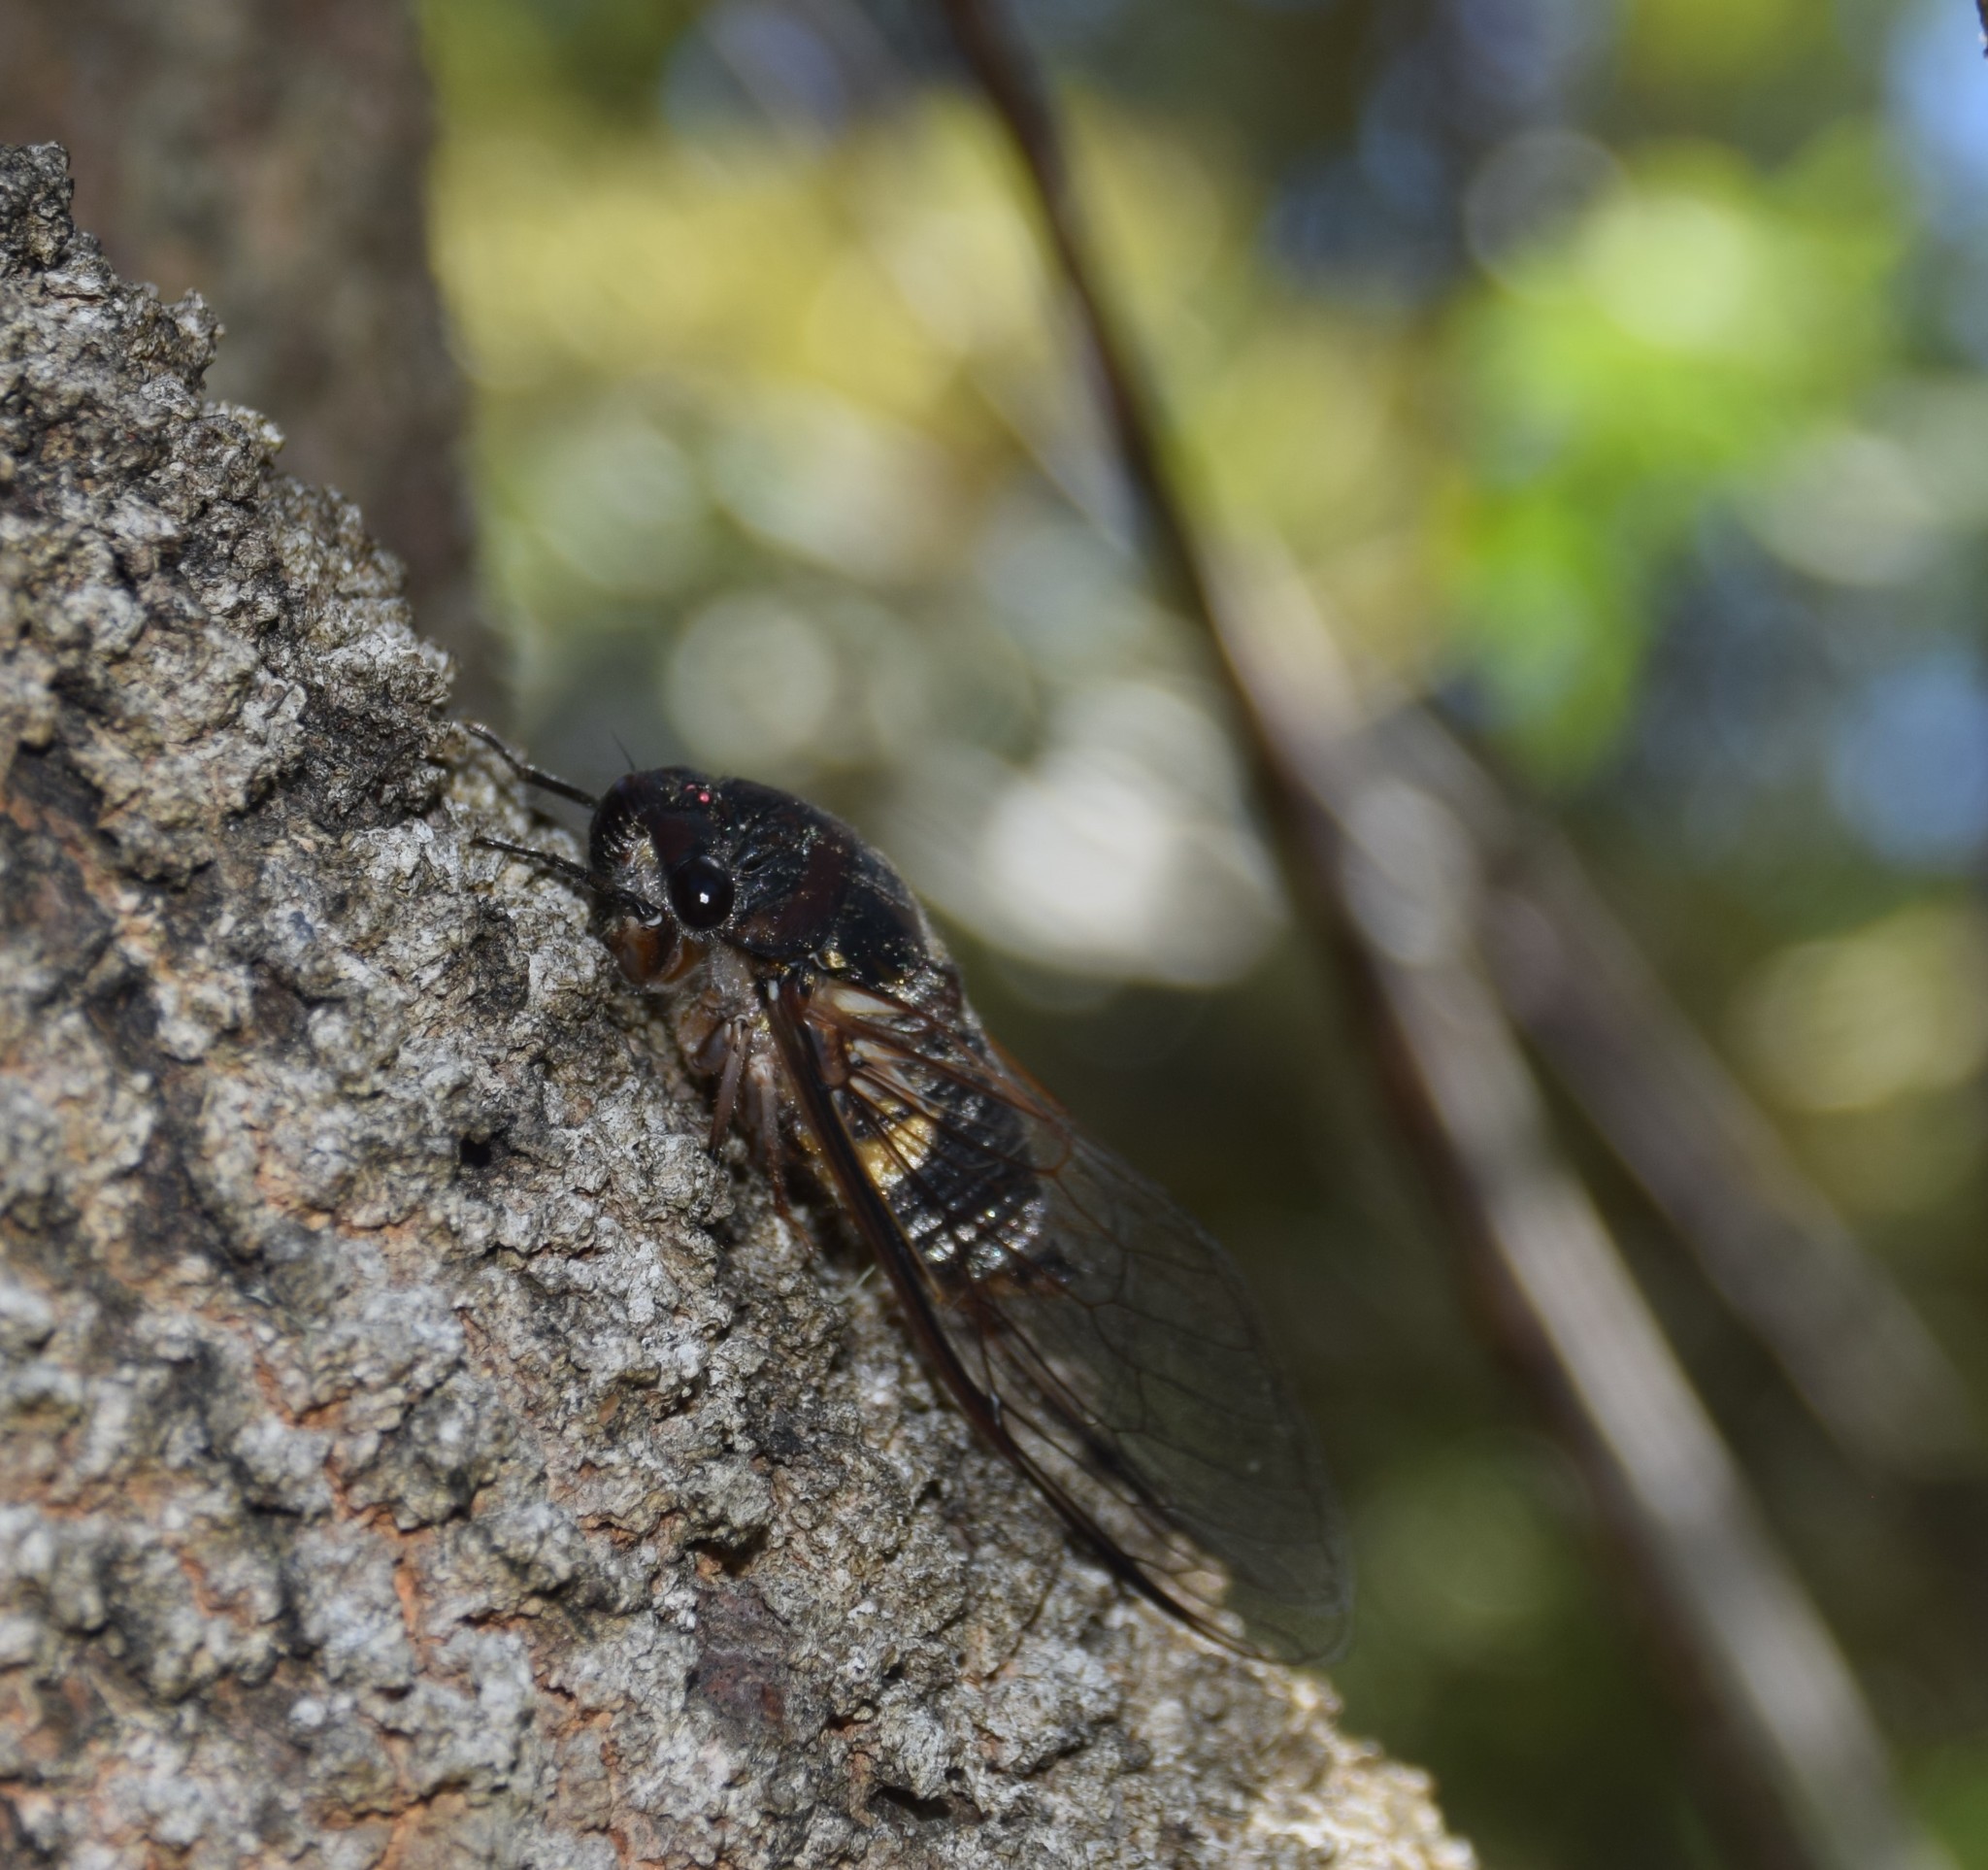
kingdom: Animalia
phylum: Arthropoda
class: Insecta
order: Hemiptera
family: Cicadidae
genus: Psaltoda
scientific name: Psaltoda harrisii
